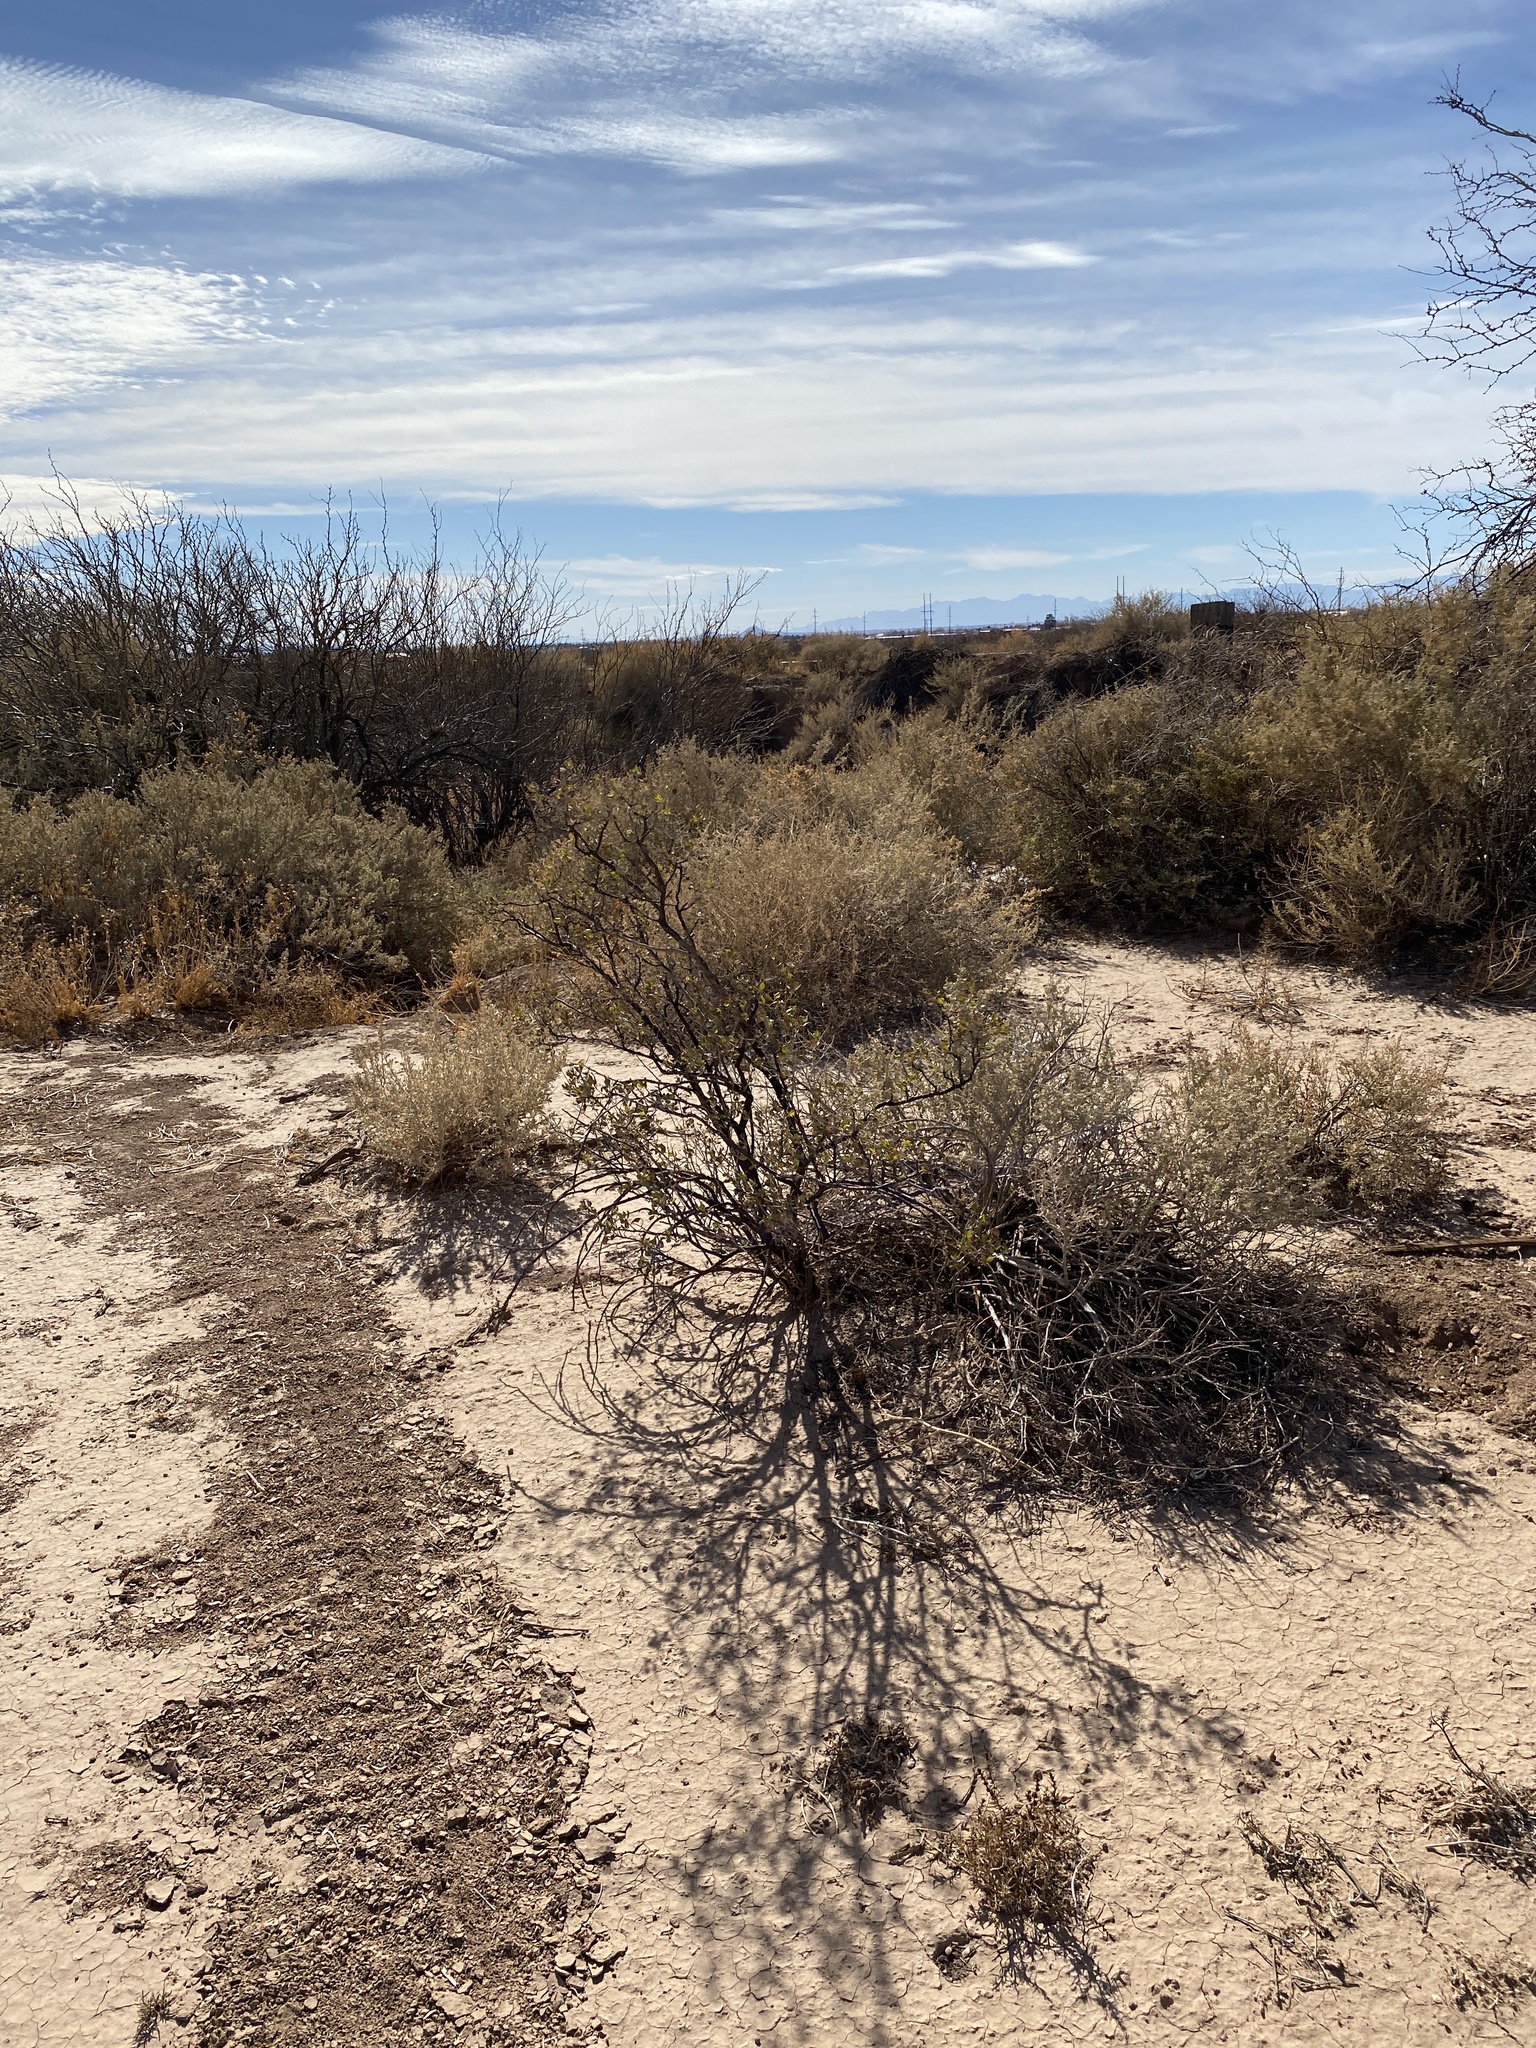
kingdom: Plantae
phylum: Tracheophyta
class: Magnoliopsida
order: Asterales
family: Asteraceae
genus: Flourensia
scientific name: Flourensia cernua
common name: Varnishbush
